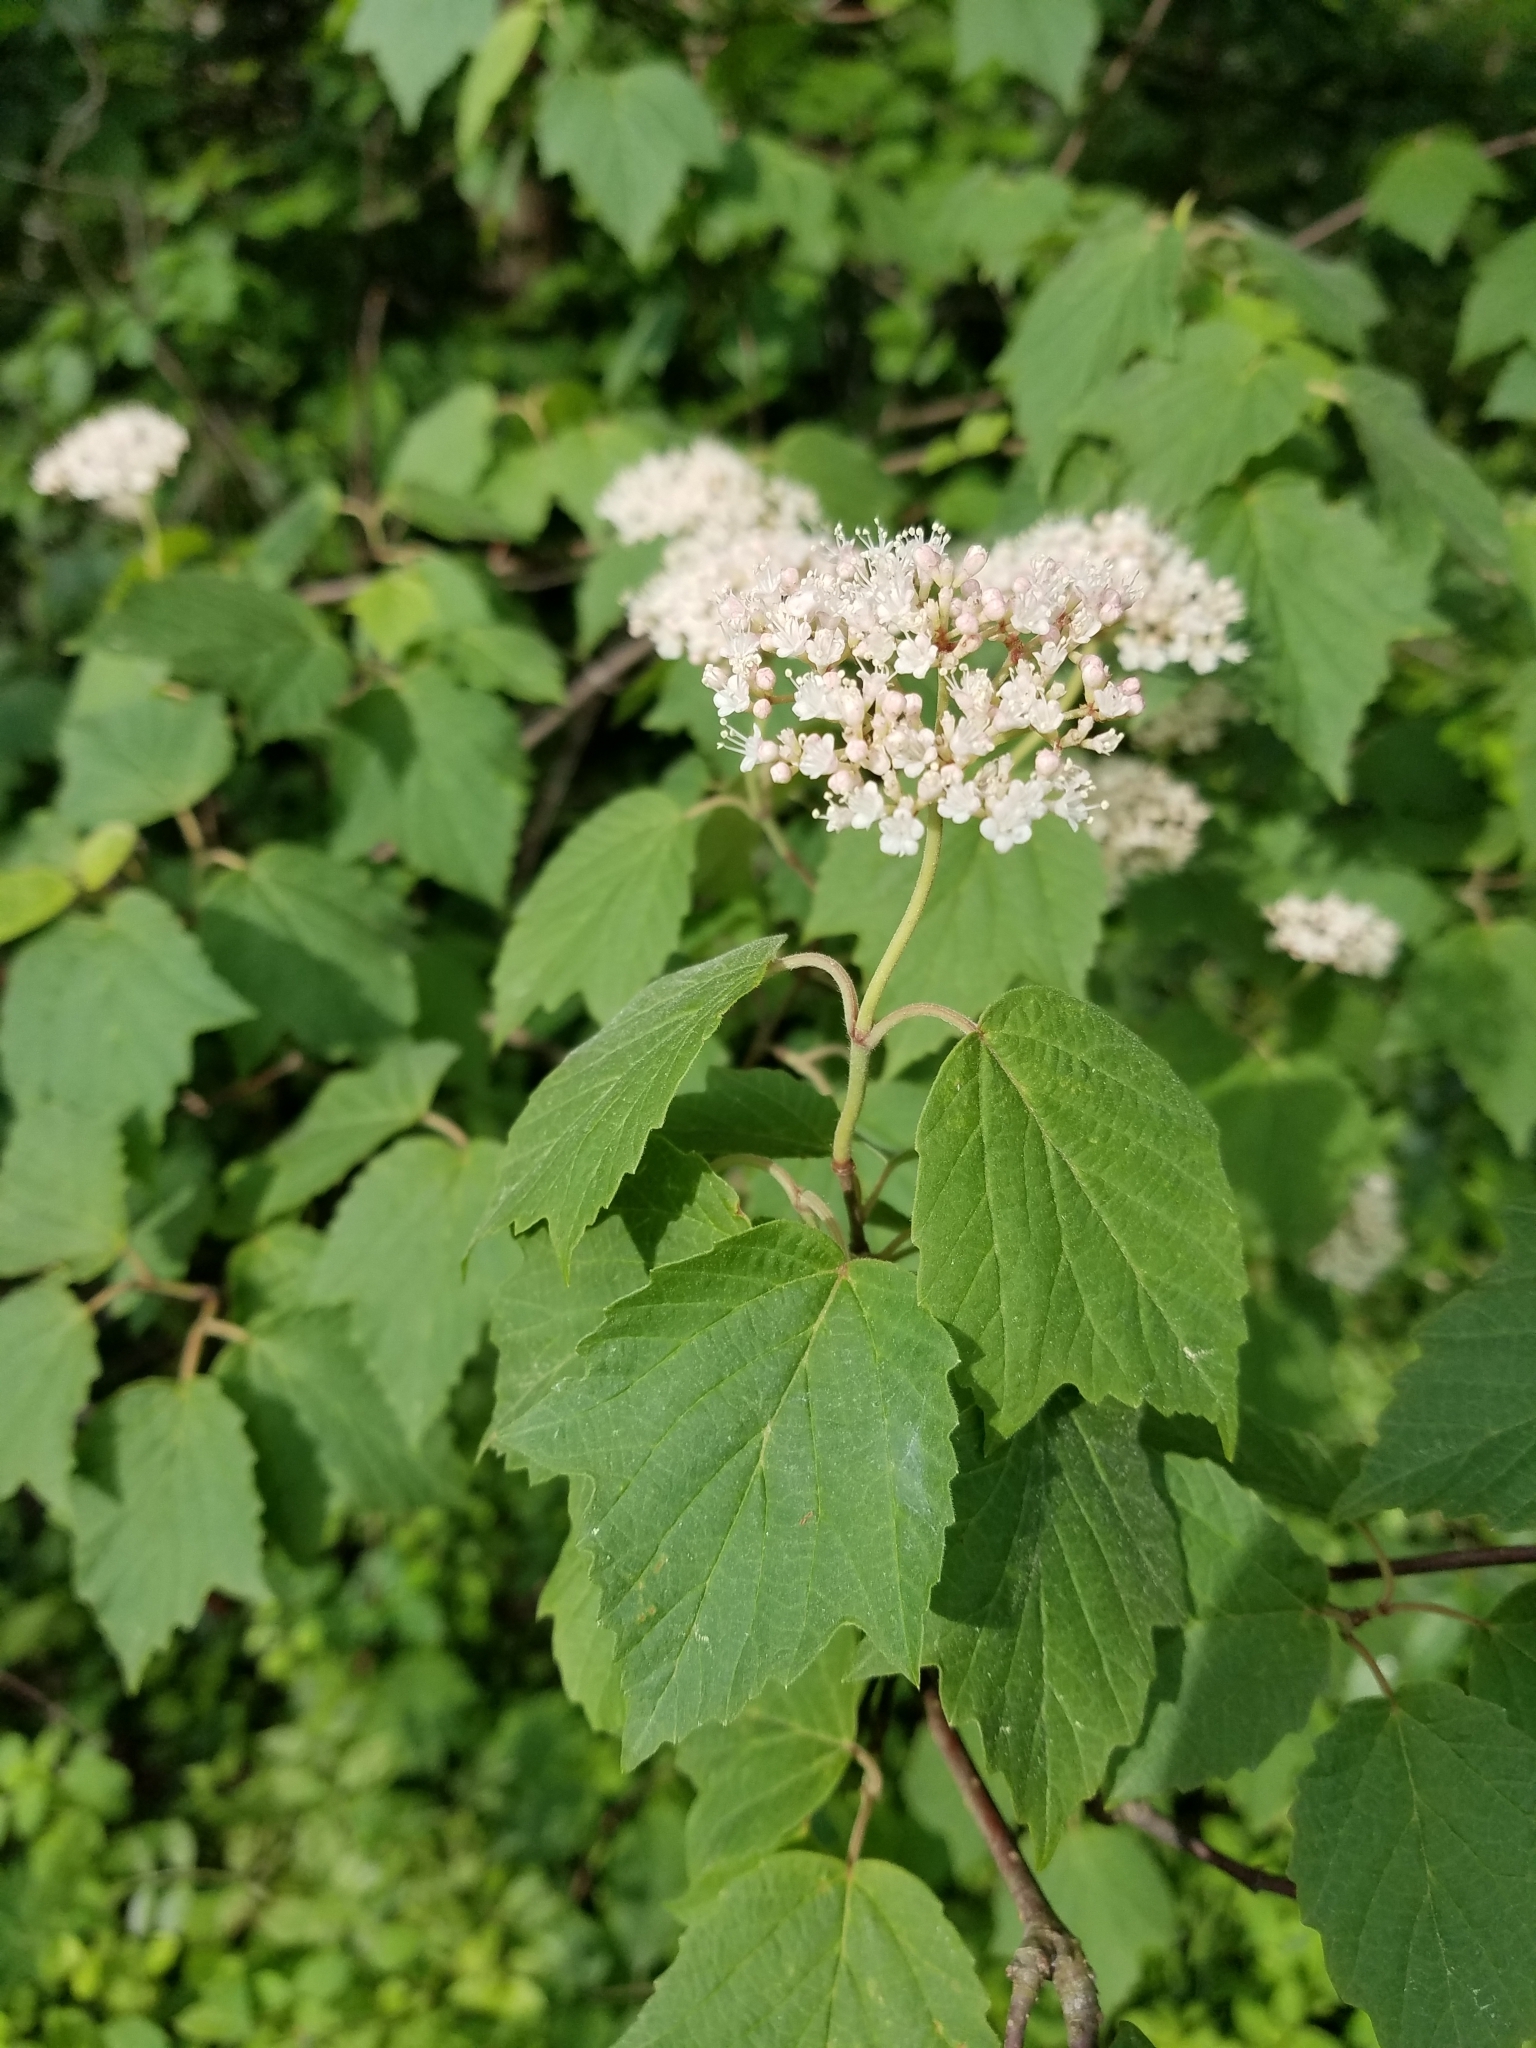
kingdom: Plantae
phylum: Tracheophyta
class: Magnoliopsida
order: Dipsacales
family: Viburnaceae
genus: Viburnum
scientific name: Viburnum acerifolium
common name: Dockmackie
